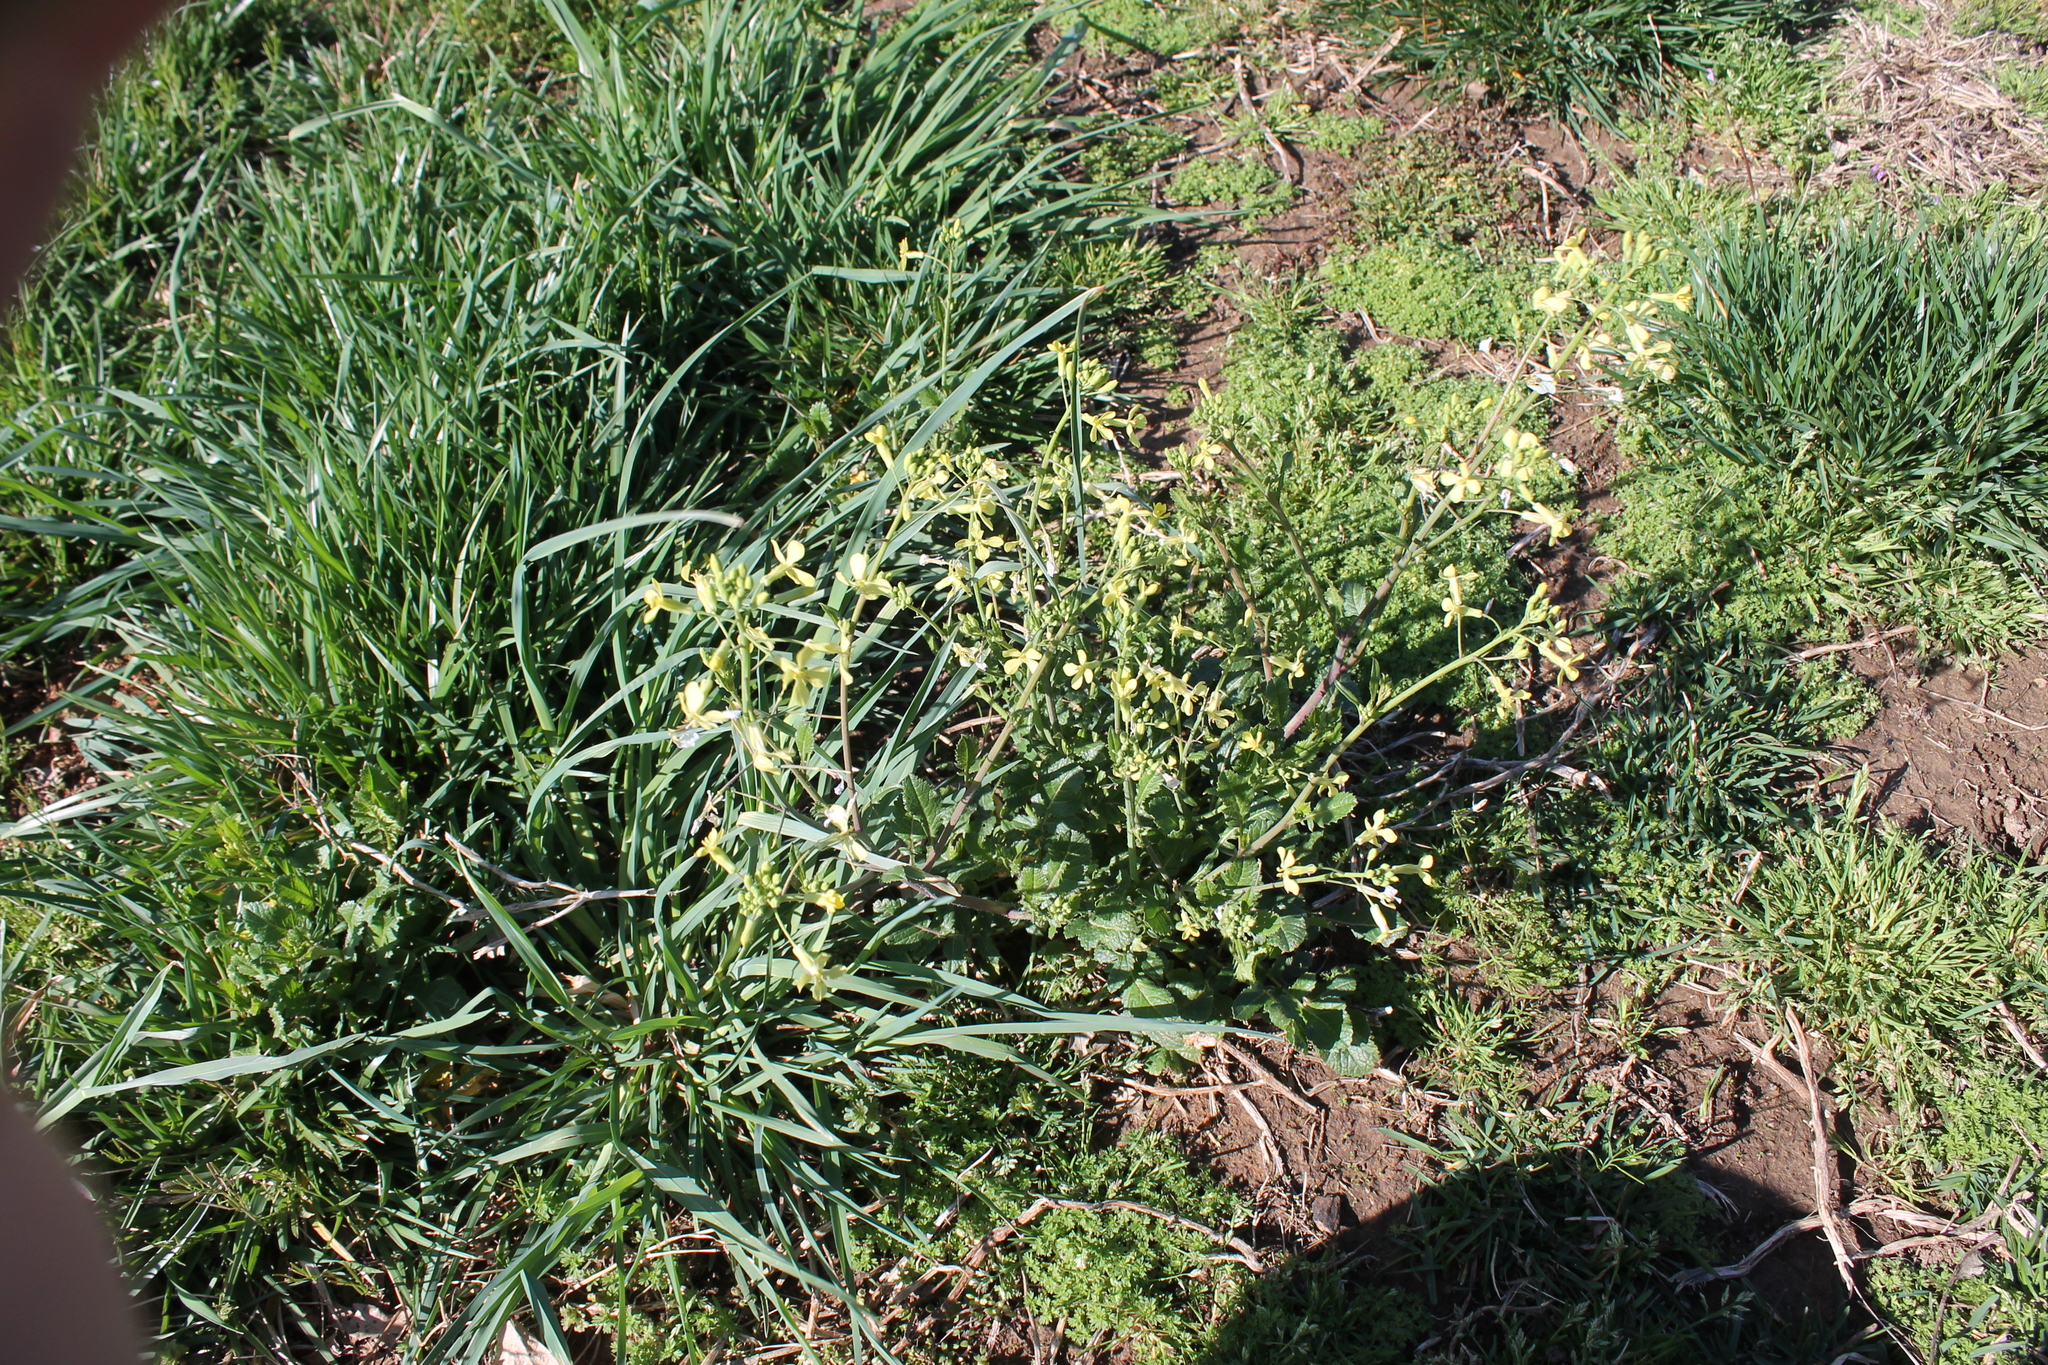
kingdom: Plantae
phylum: Tracheophyta
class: Magnoliopsida
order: Brassicales
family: Brassicaceae
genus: Raphanus
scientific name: Raphanus raphanistrum
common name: Wild radish
